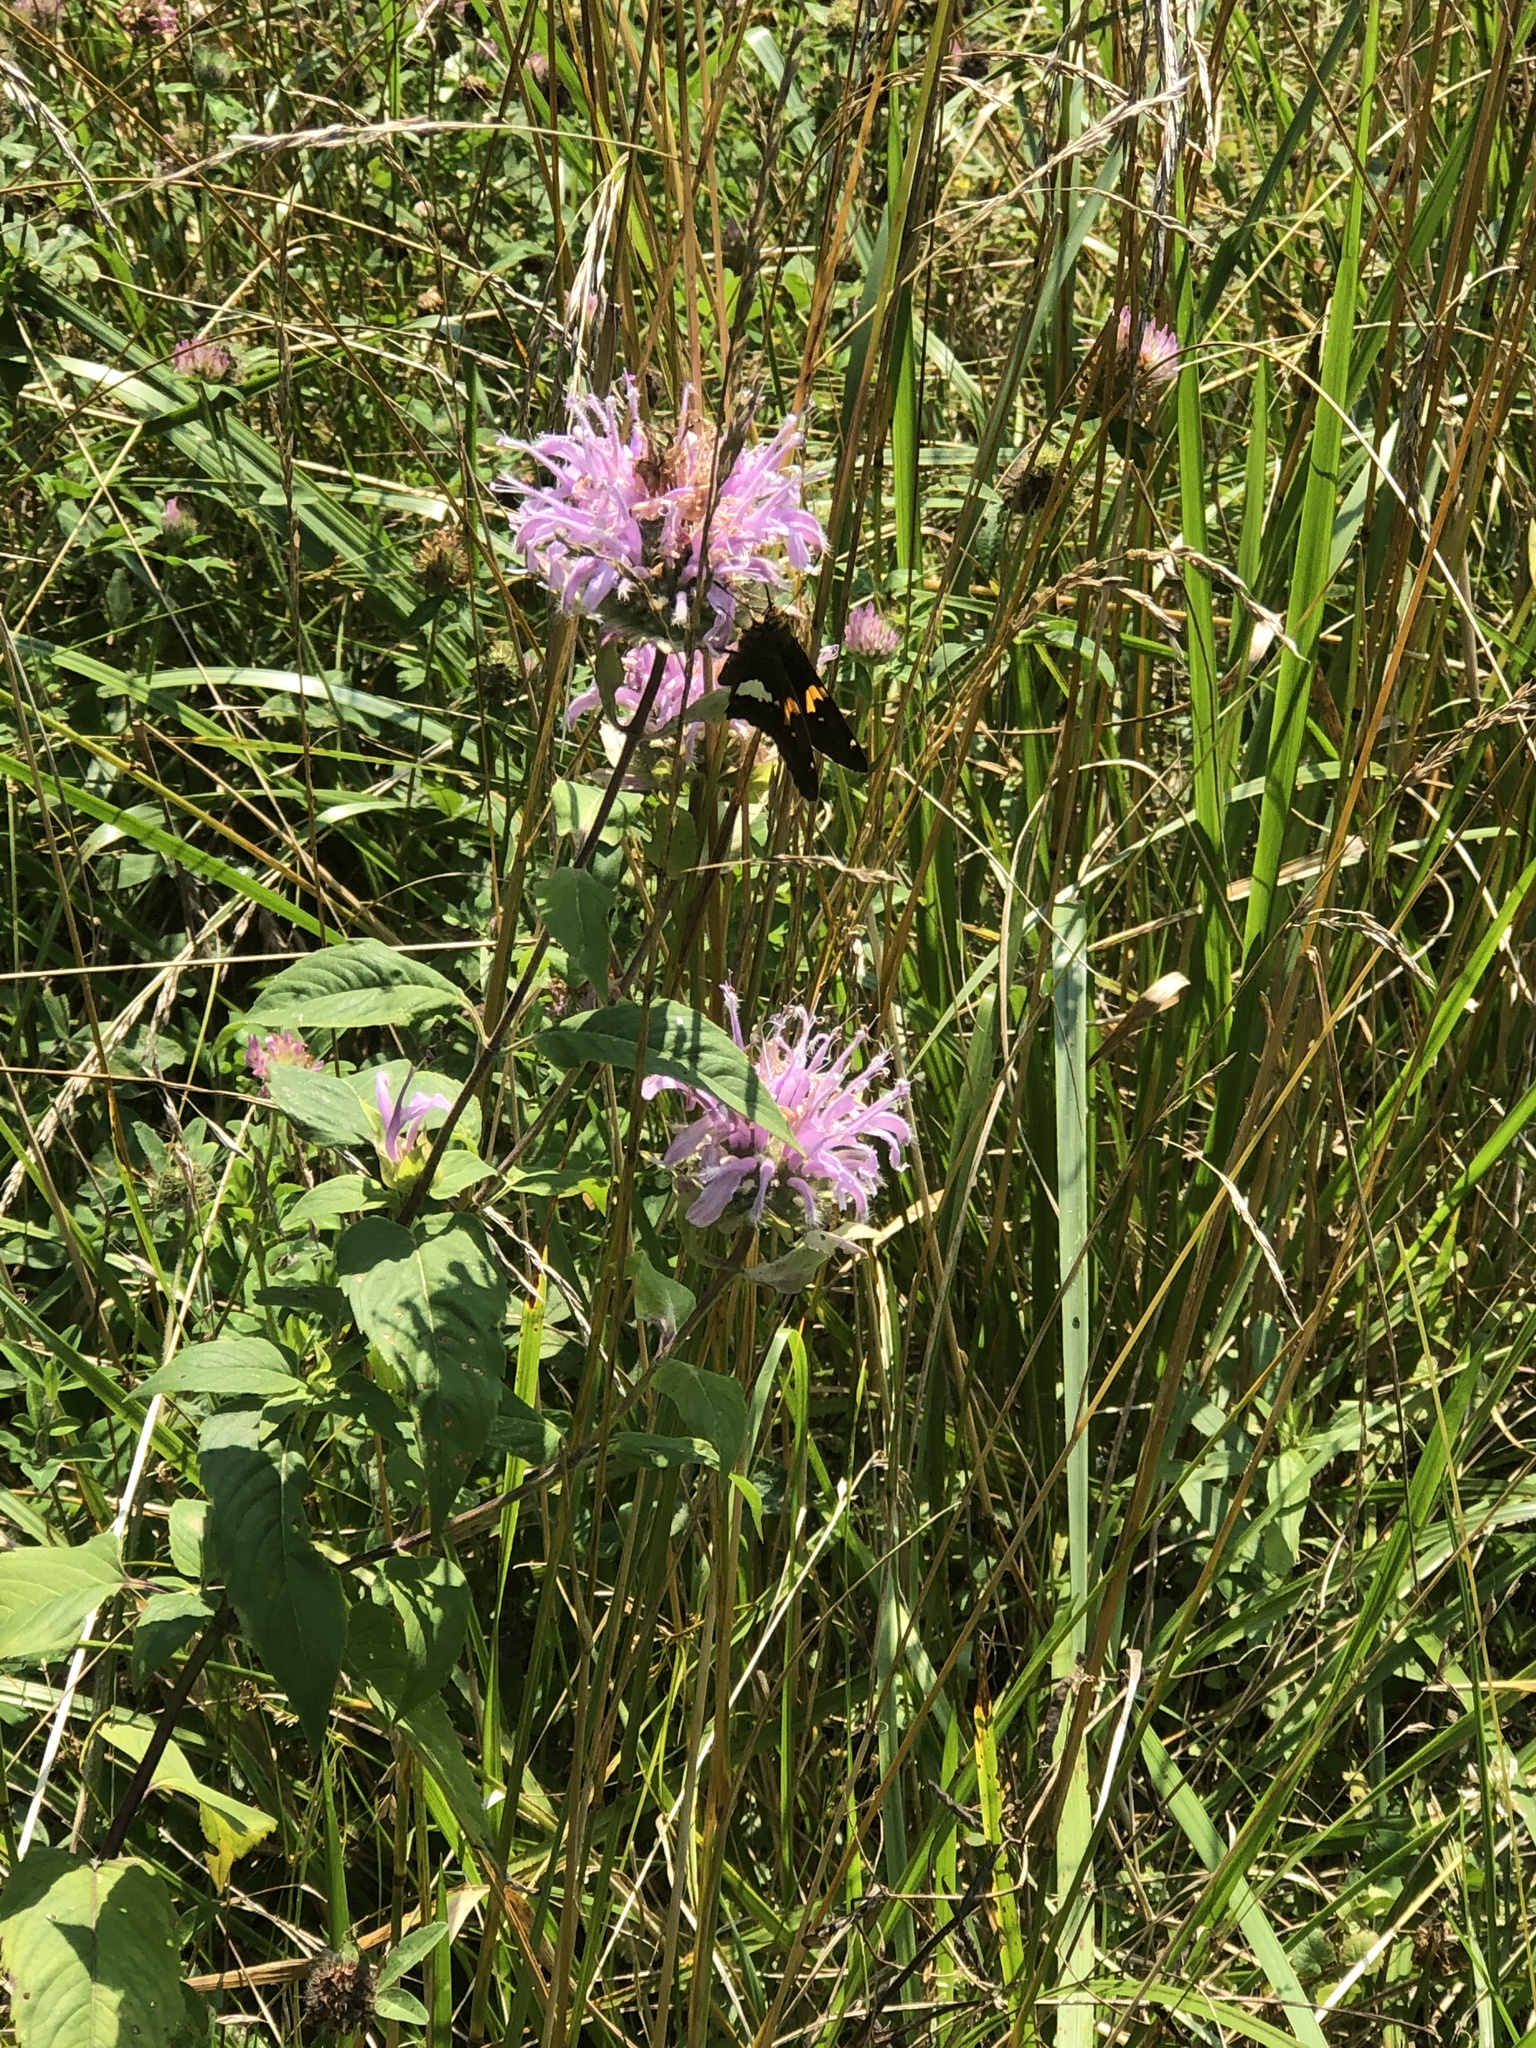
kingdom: Animalia
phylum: Arthropoda
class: Insecta
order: Lepidoptera
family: Hesperiidae
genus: Epargyreus
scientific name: Epargyreus clarus
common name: Silver-spotted skipper
